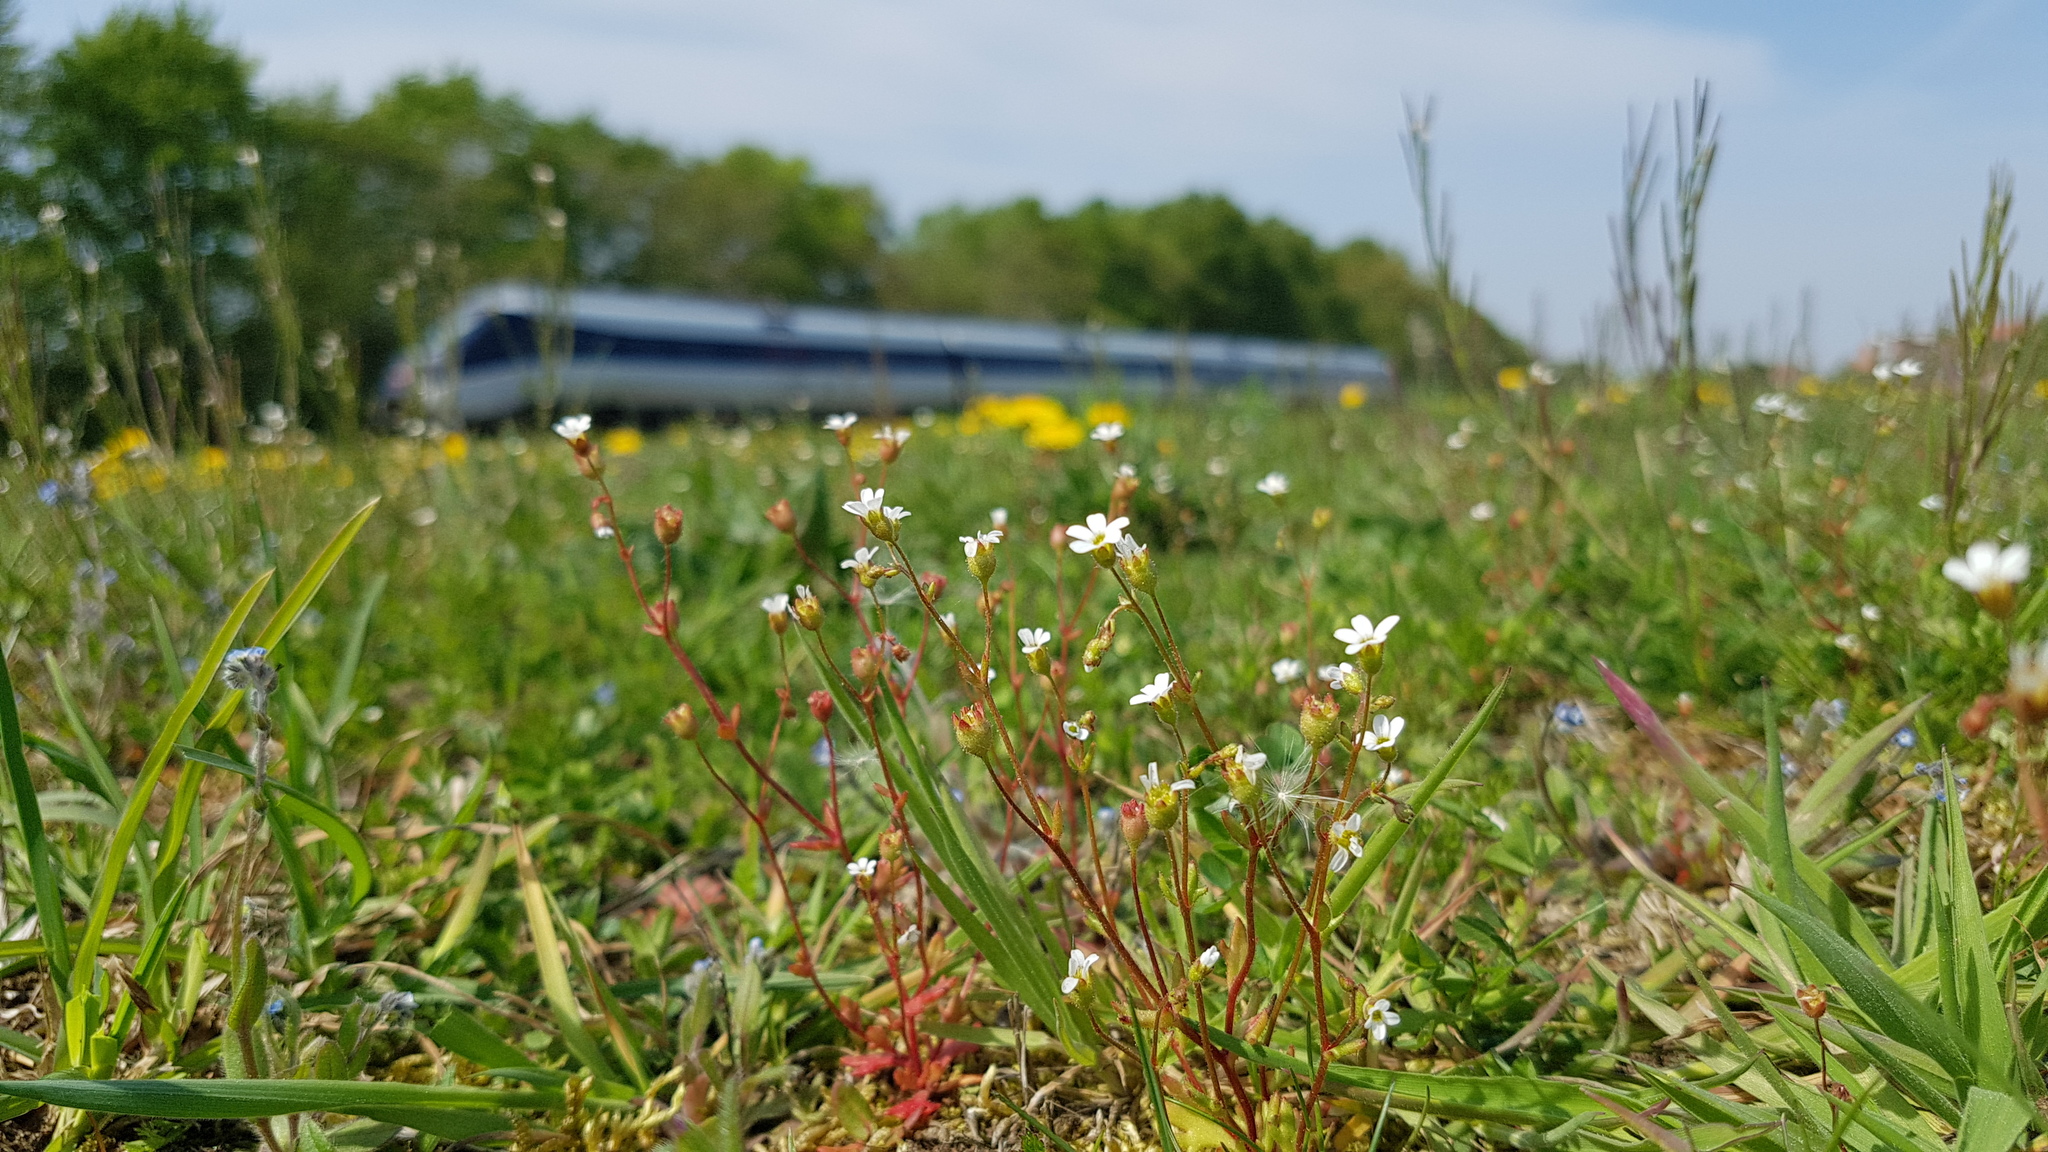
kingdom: Plantae
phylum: Tracheophyta
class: Magnoliopsida
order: Saxifragales
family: Saxifragaceae
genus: Saxifraga
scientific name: Saxifraga tridactylites
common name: Rue-leaved saxifrage
